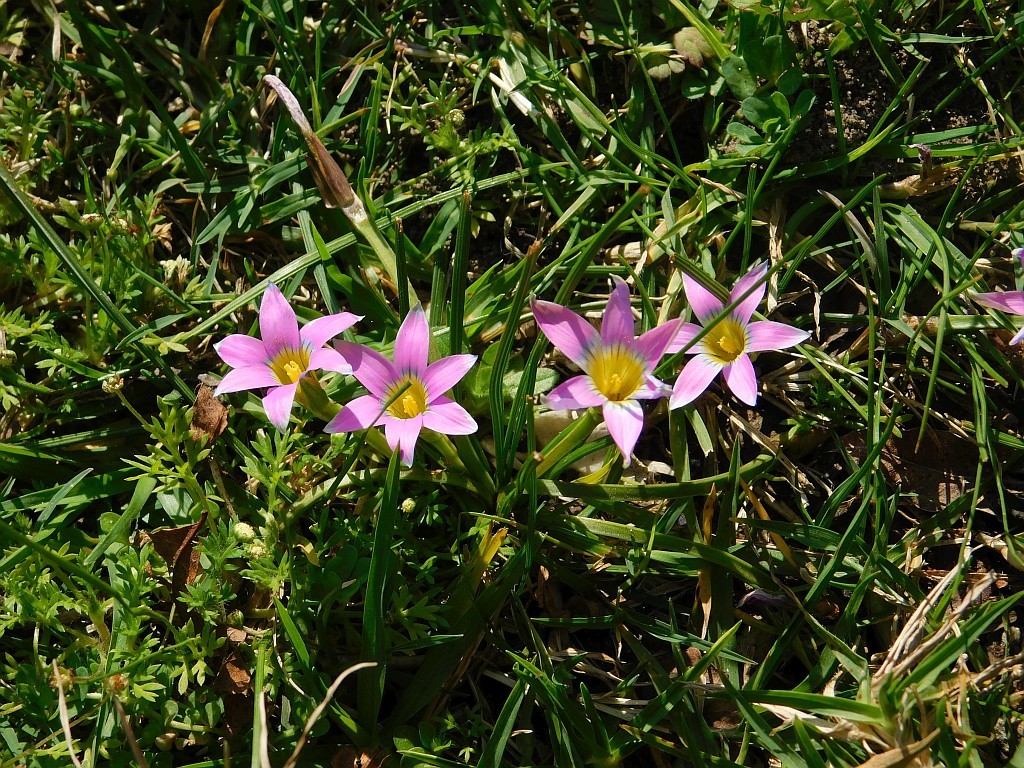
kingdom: Plantae
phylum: Tracheophyta
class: Liliopsida
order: Asparagales
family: Iridaceae
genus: Romulea
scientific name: Romulea rosea
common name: Oniongrass
